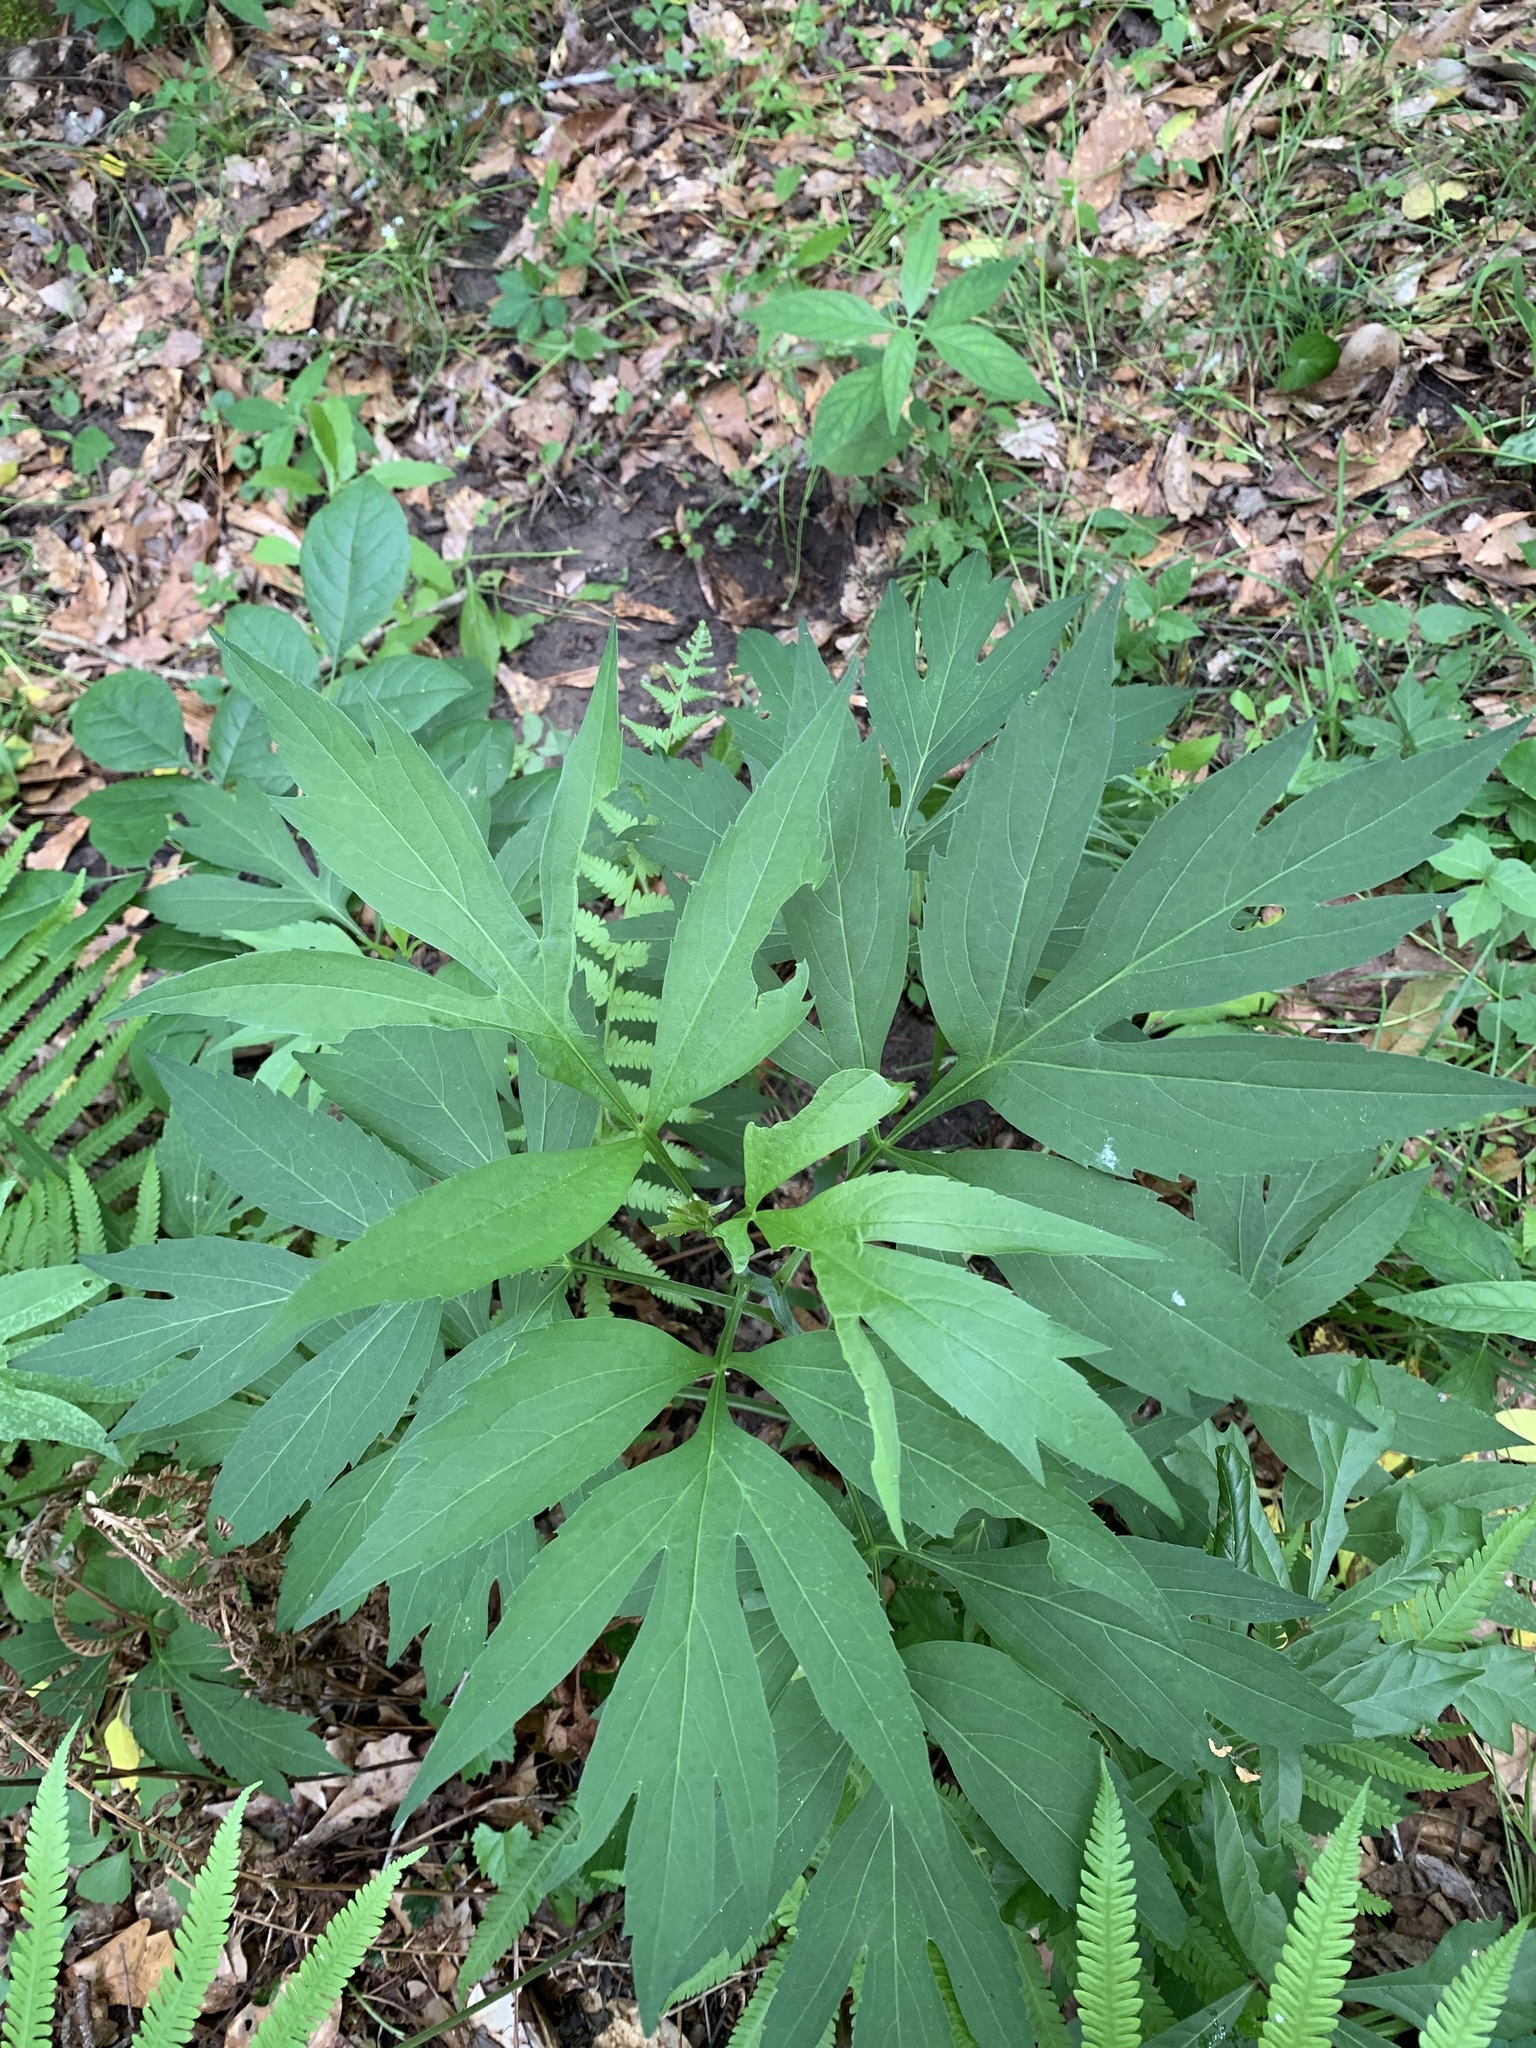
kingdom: Plantae
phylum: Tracheophyta
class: Magnoliopsida
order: Asterales
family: Asteraceae
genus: Rudbeckia
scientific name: Rudbeckia laciniata
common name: Coneflower
